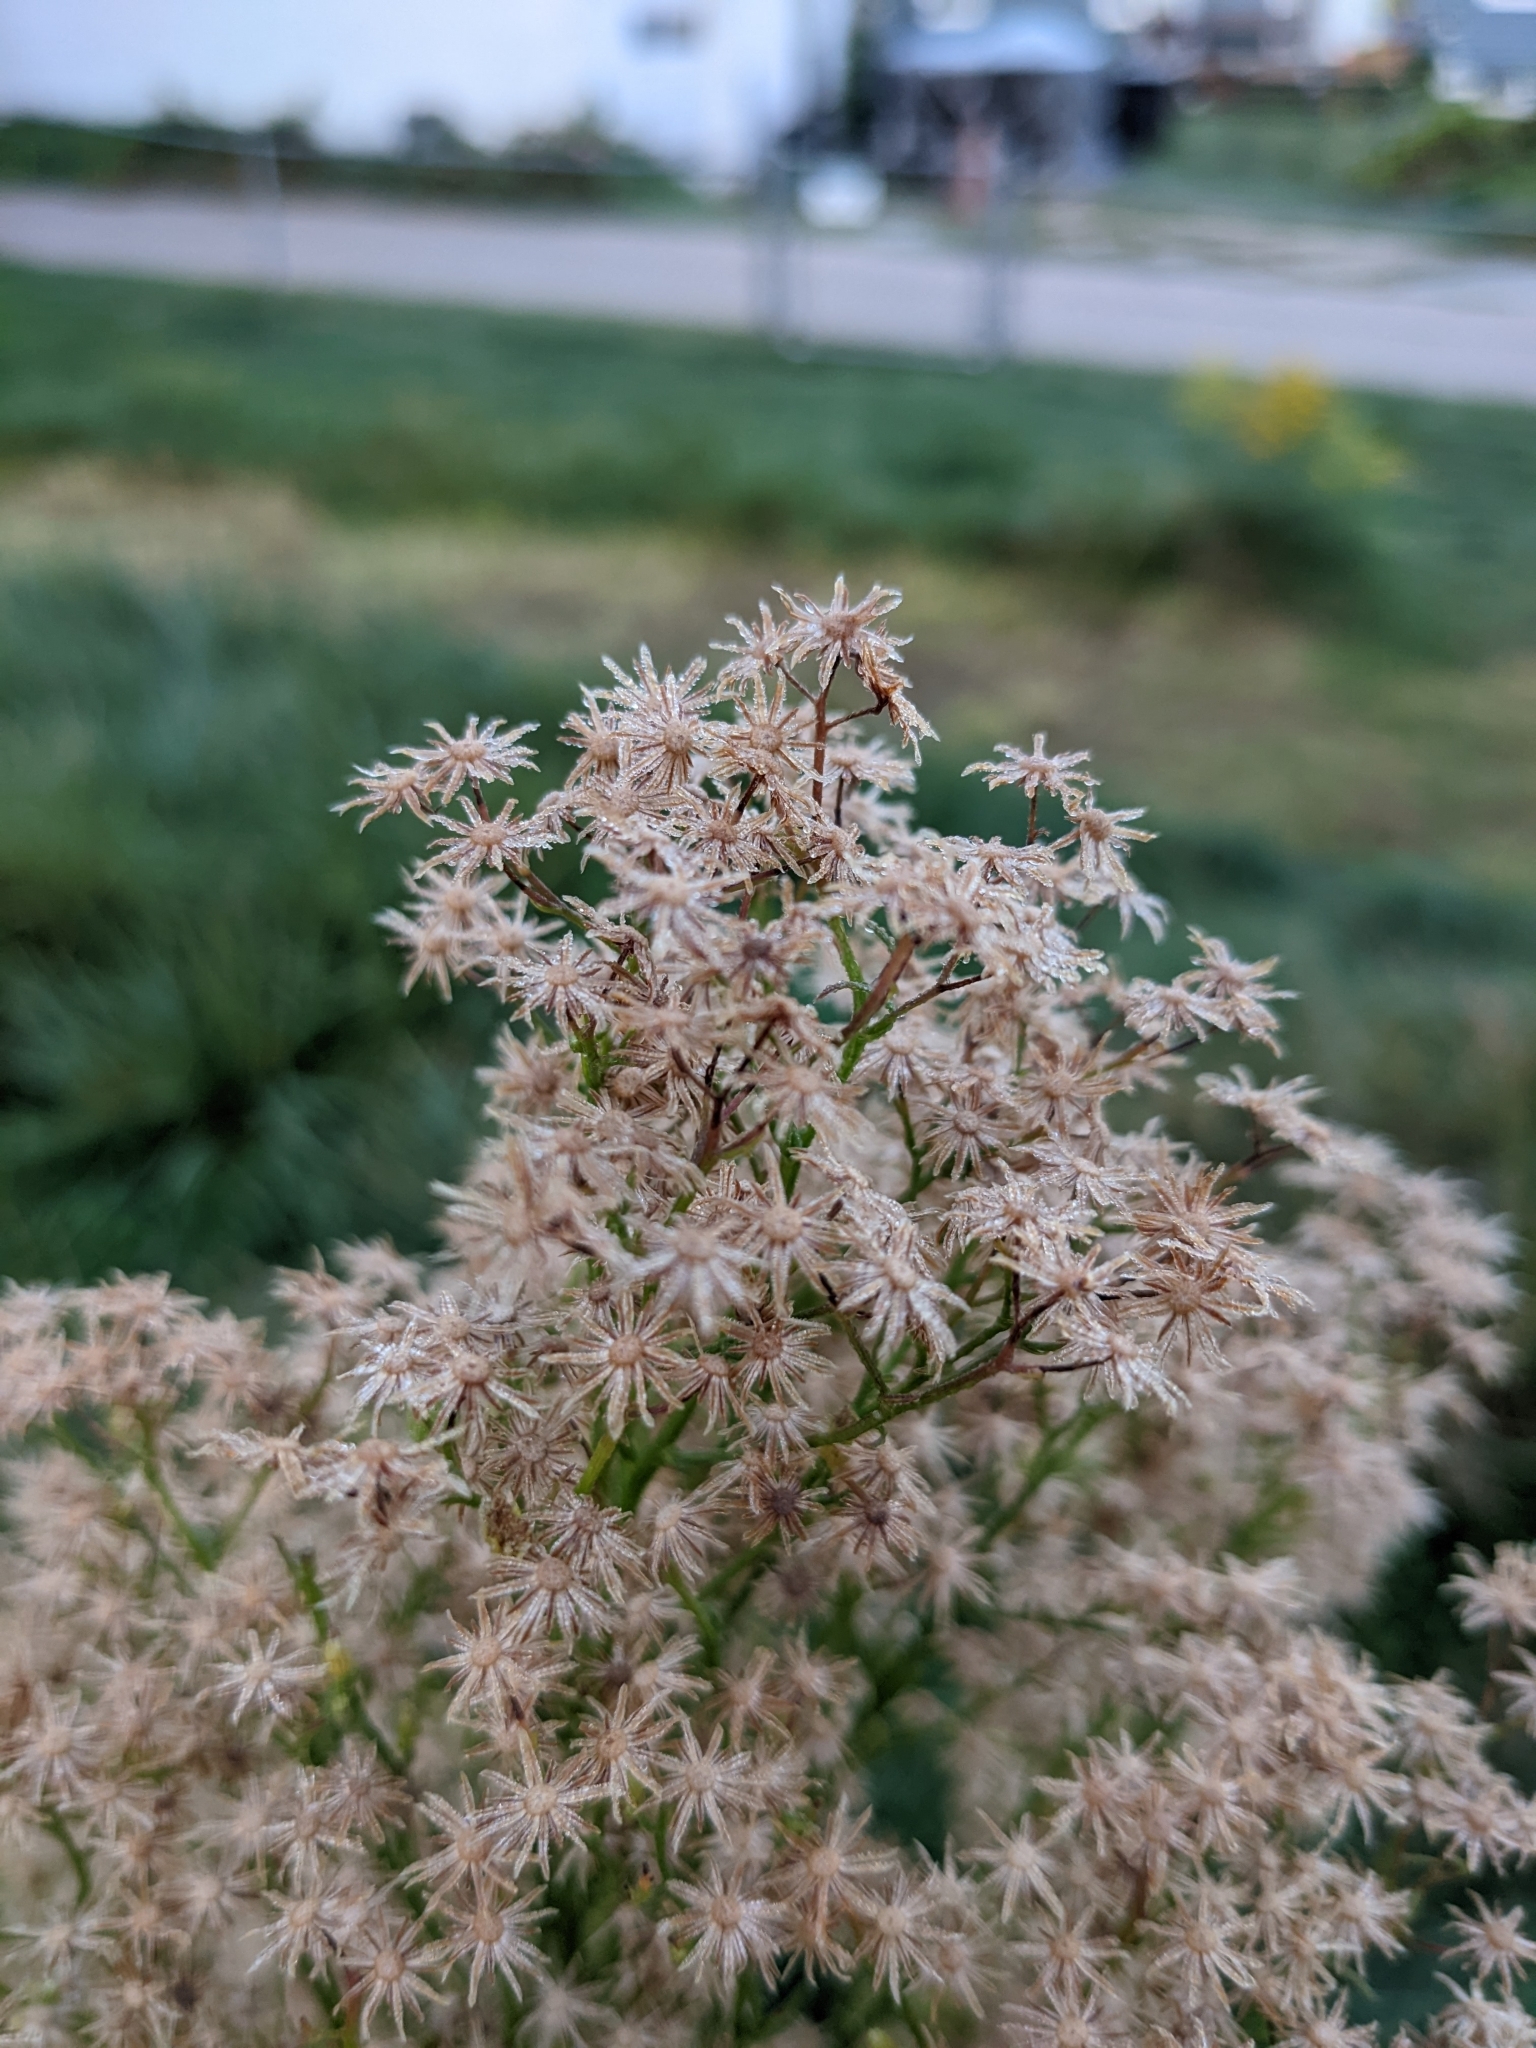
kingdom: Plantae
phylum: Tracheophyta
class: Magnoliopsida
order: Asterales
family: Asteraceae
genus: Erigeron
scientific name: Erigeron canadensis
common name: Canadian fleabane
